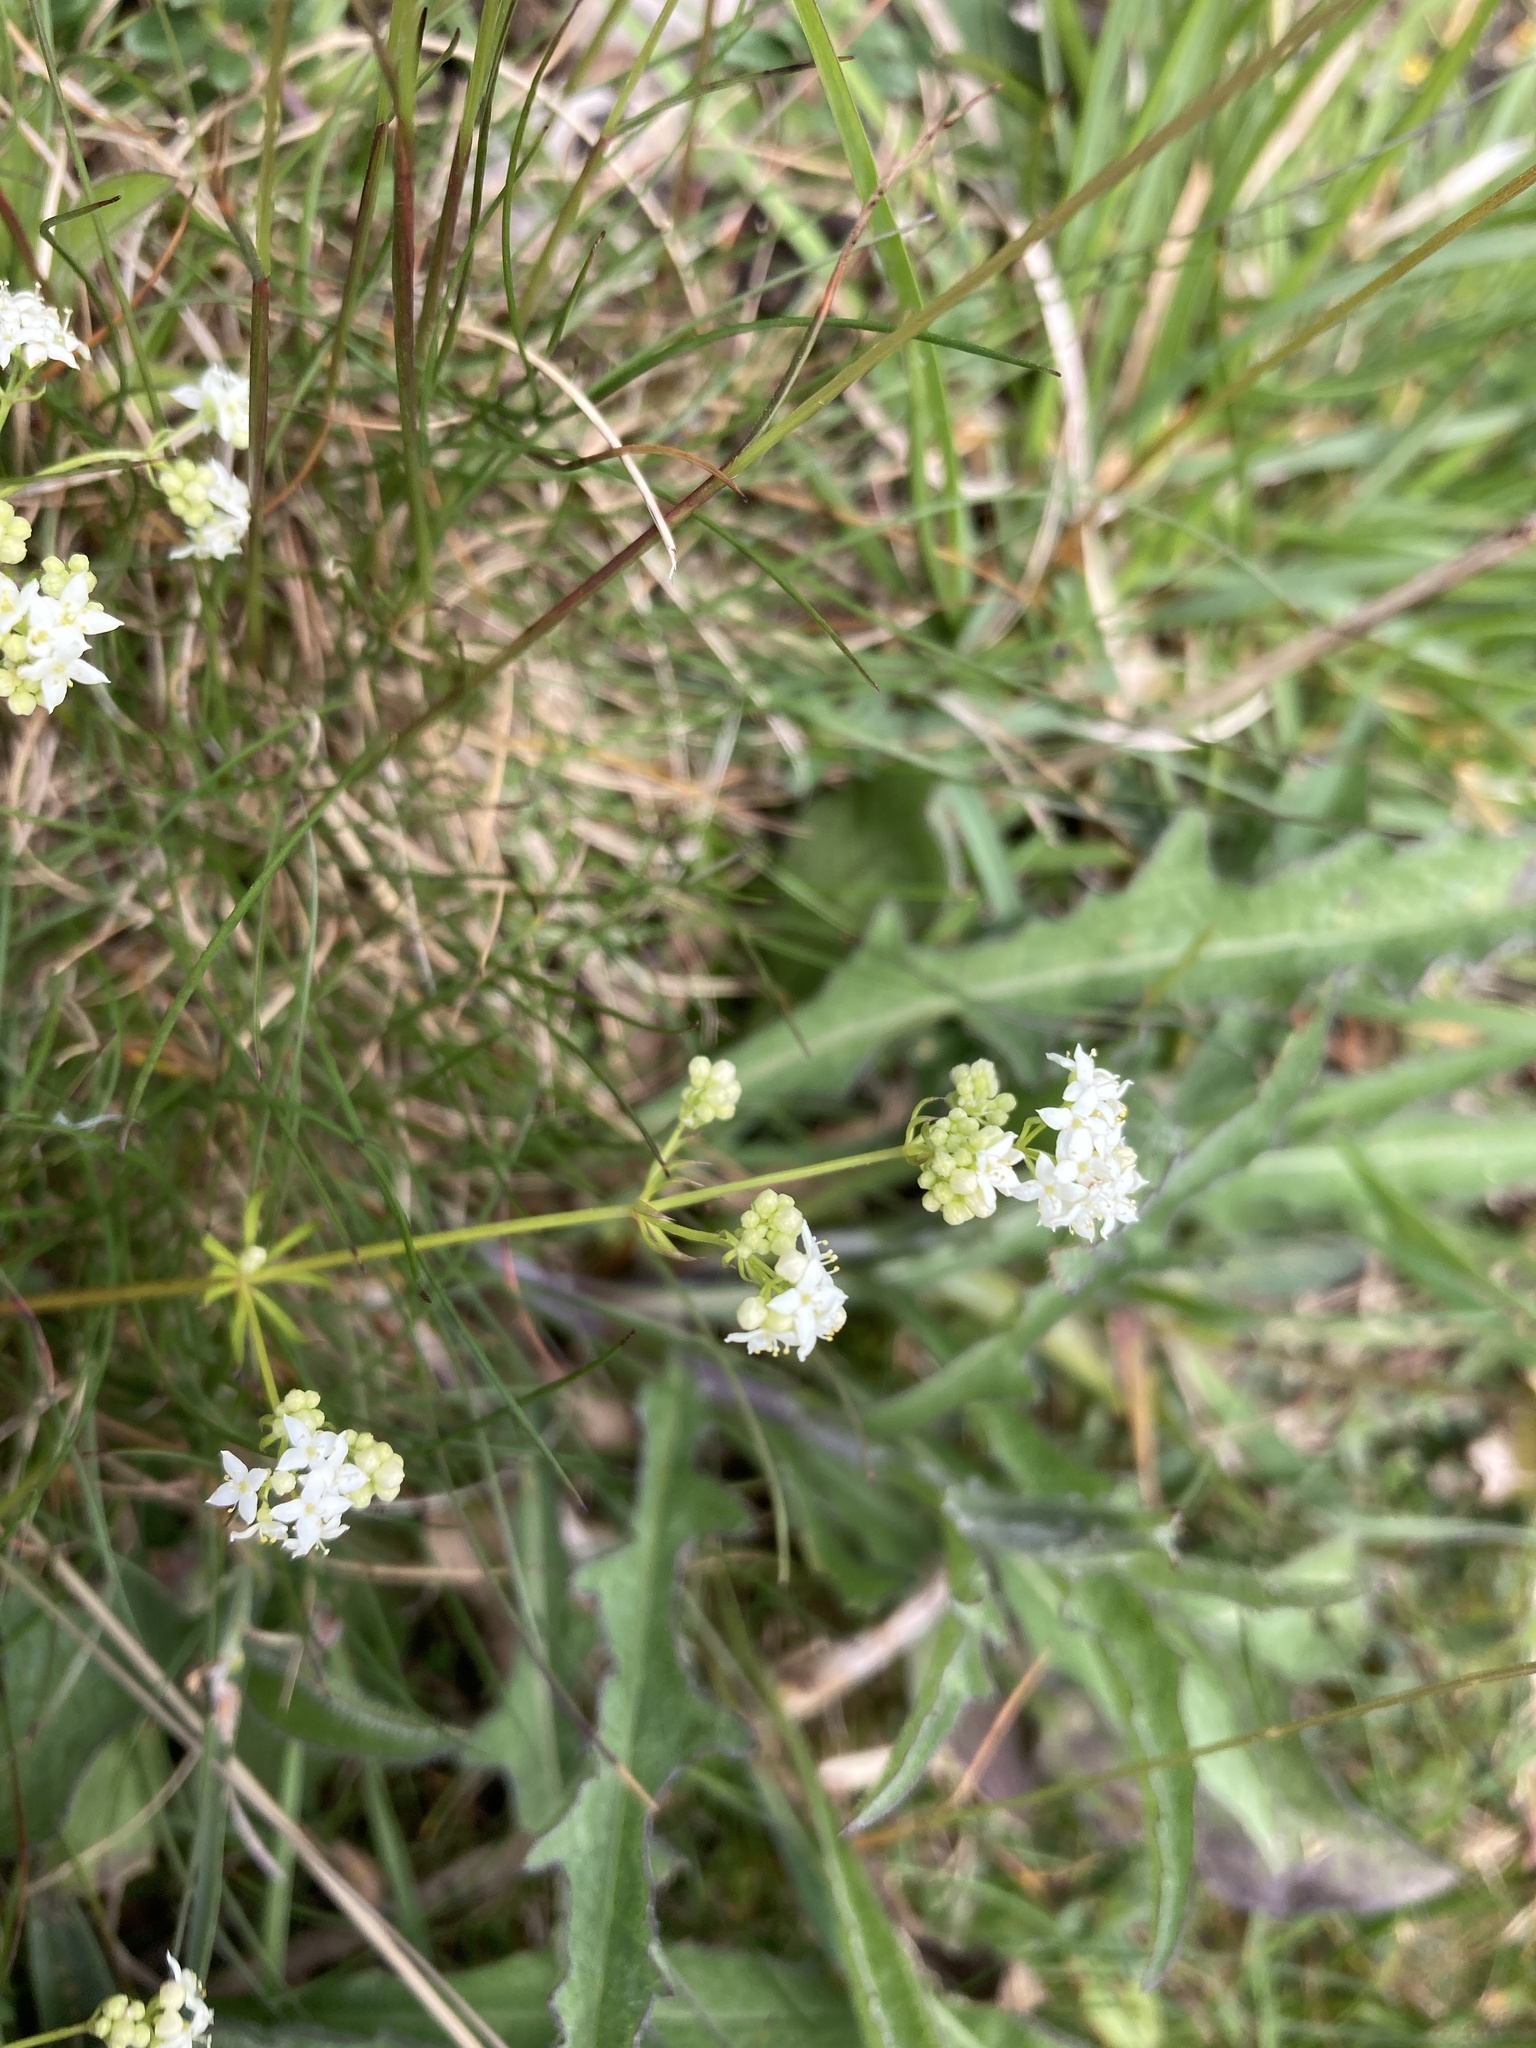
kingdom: Plantae
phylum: Tracheophyta
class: Magnoliopsida
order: Gentianales
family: Rubiaceae
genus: Galium
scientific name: Galium sterneri
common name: Limestone bedstraw
